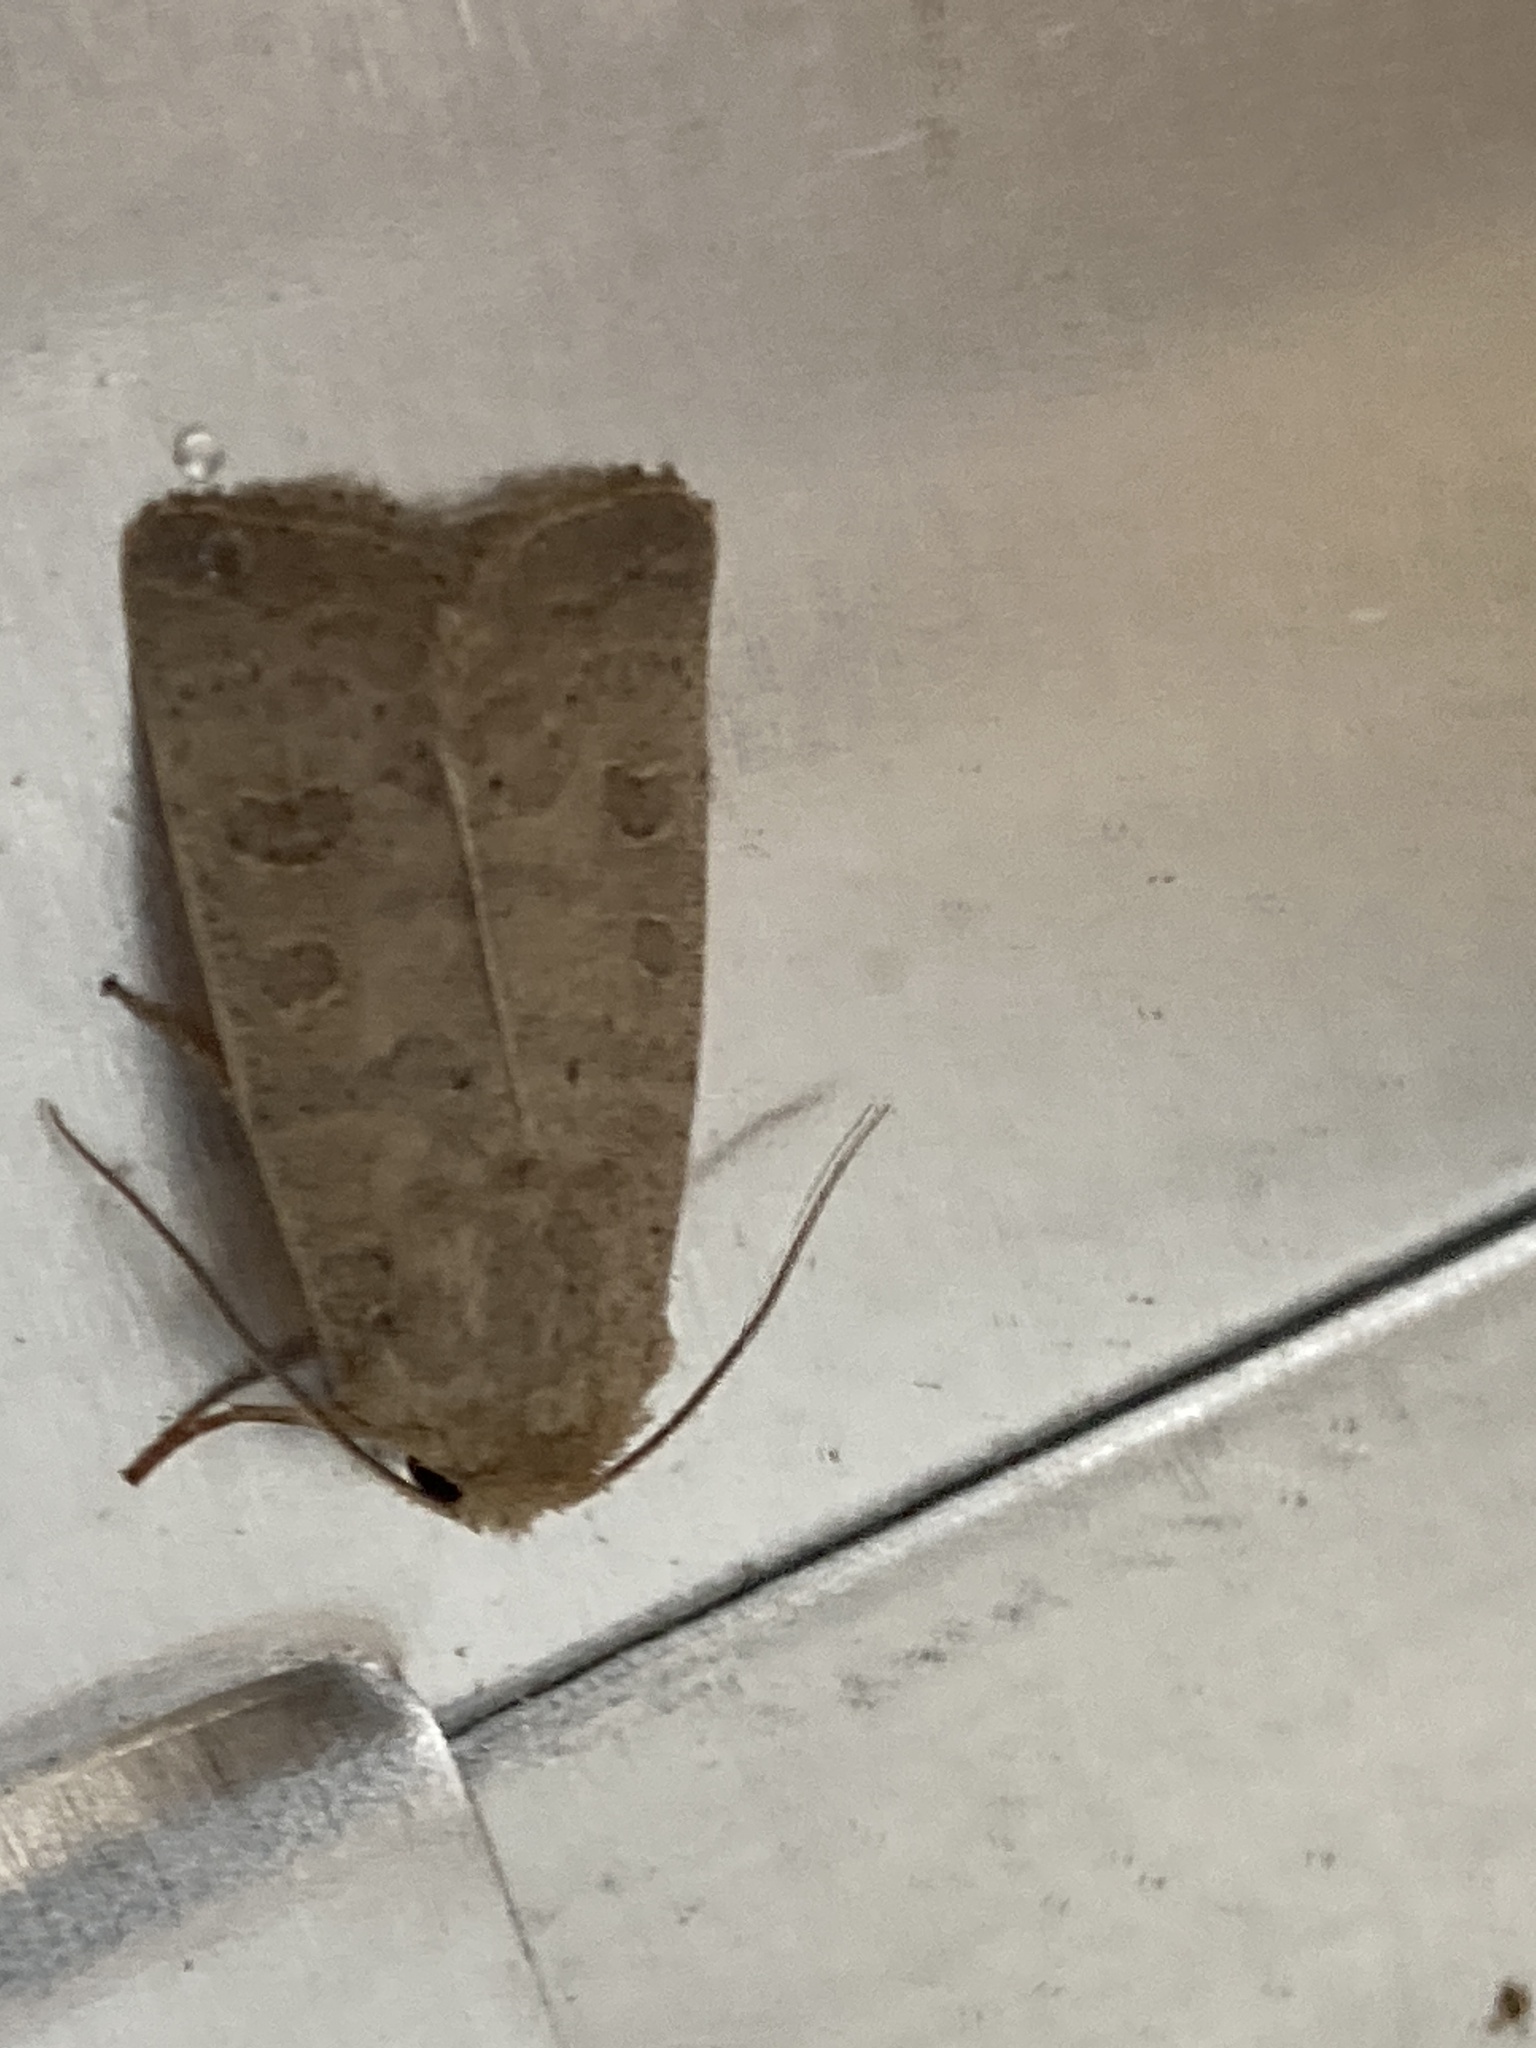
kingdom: Animalia
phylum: Arthropoda
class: Insecta
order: Lepidoptera
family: Noctuidae
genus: Hoplodrina
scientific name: Hoplodrina ambigua
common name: Vine's rustic
